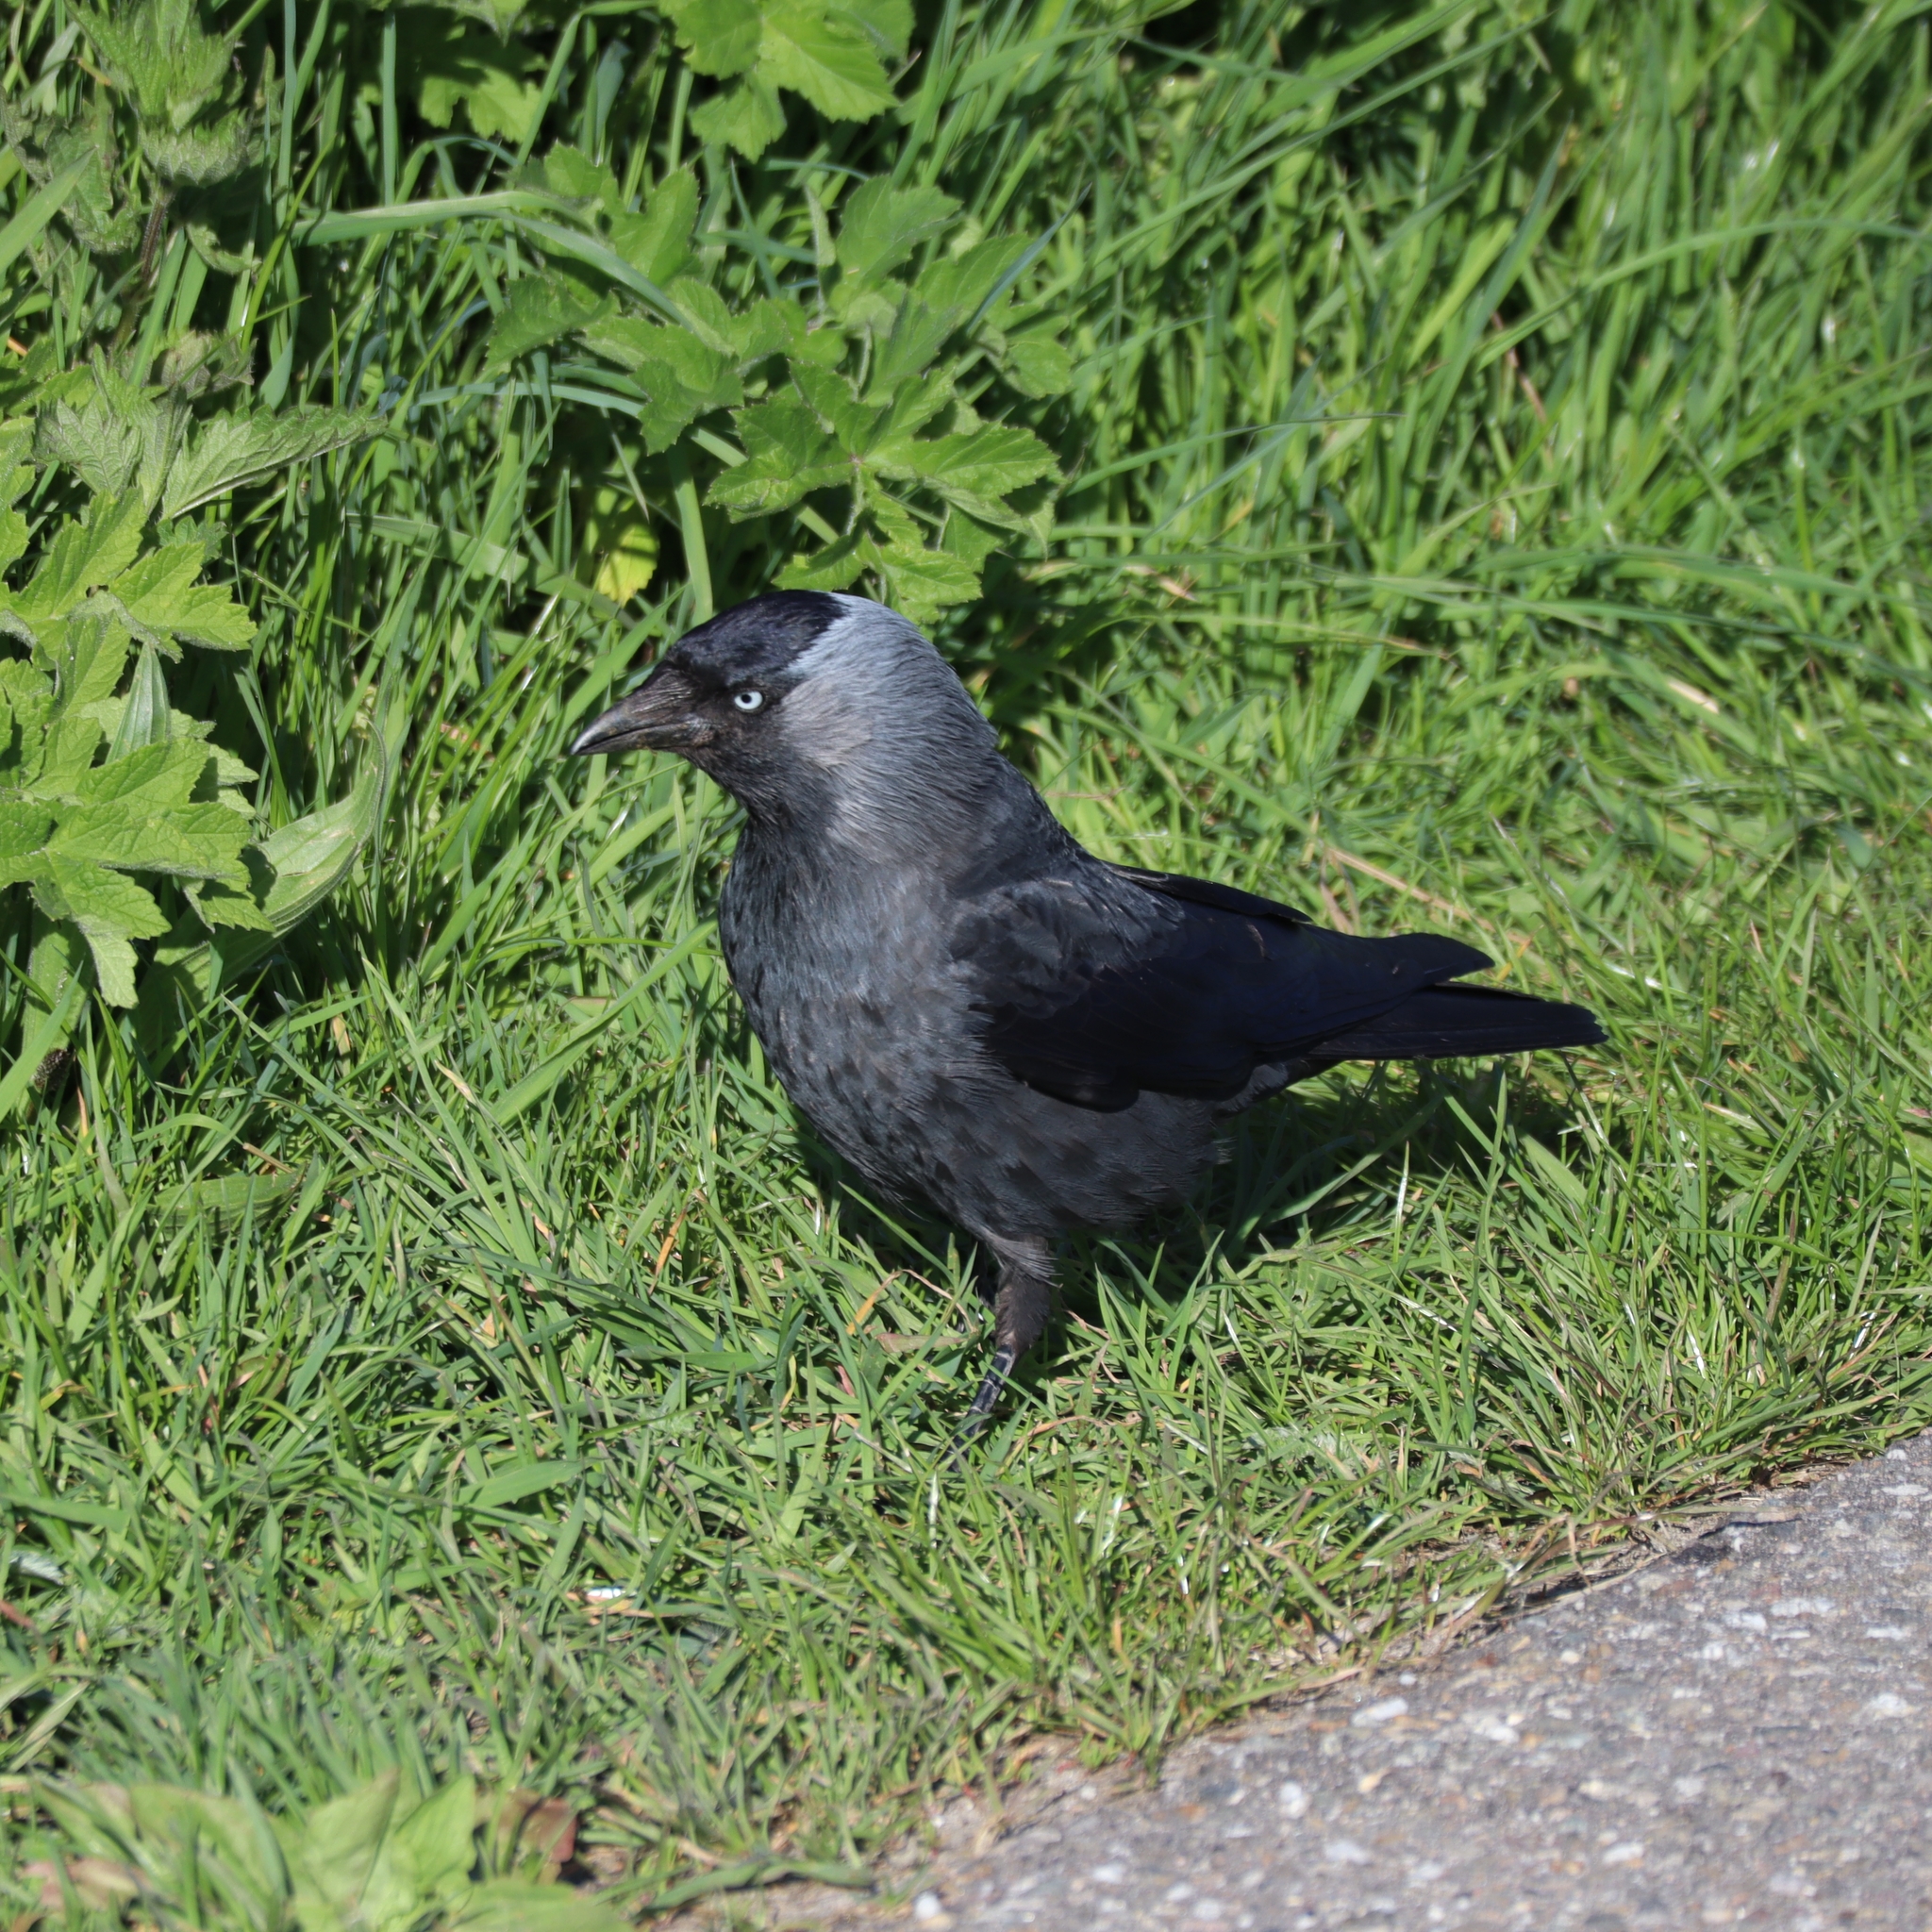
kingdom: Animalia
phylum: Chordata
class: Aves
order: Passeriformes
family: Corvidae
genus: Coloeus
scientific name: Coloeus monedula
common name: Western jackdaw
